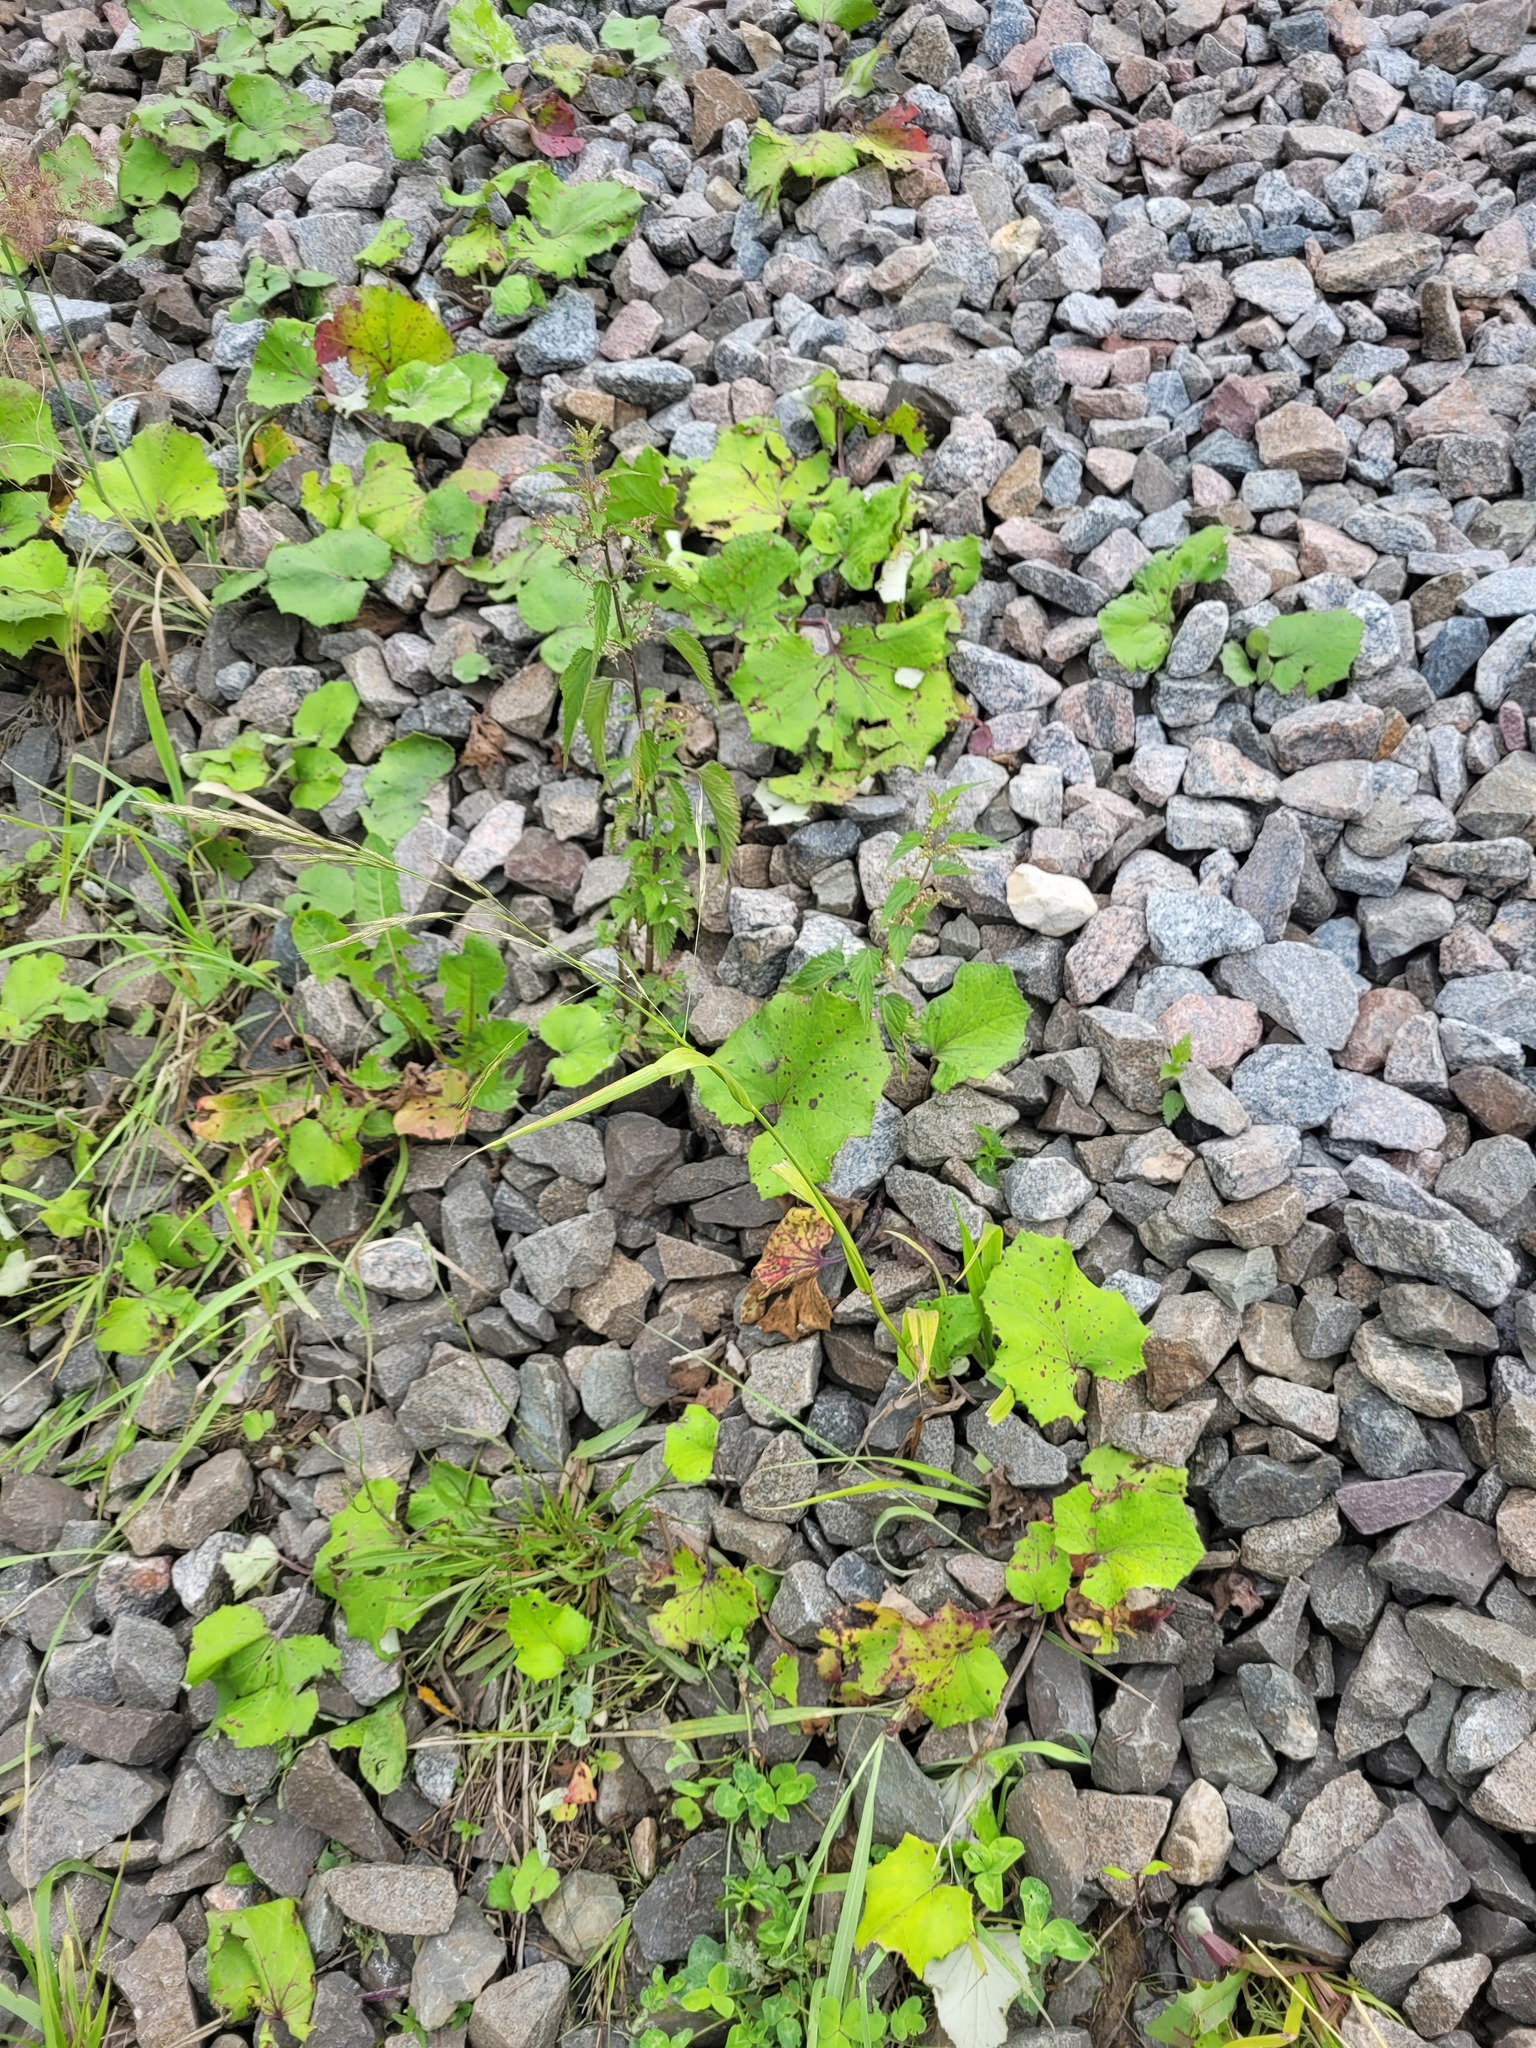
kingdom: Plantae
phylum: Tracheophyta
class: Liliopsida
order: Poales
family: Poaceae
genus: Lolium
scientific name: Lolium giganteum
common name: Giant fescue
